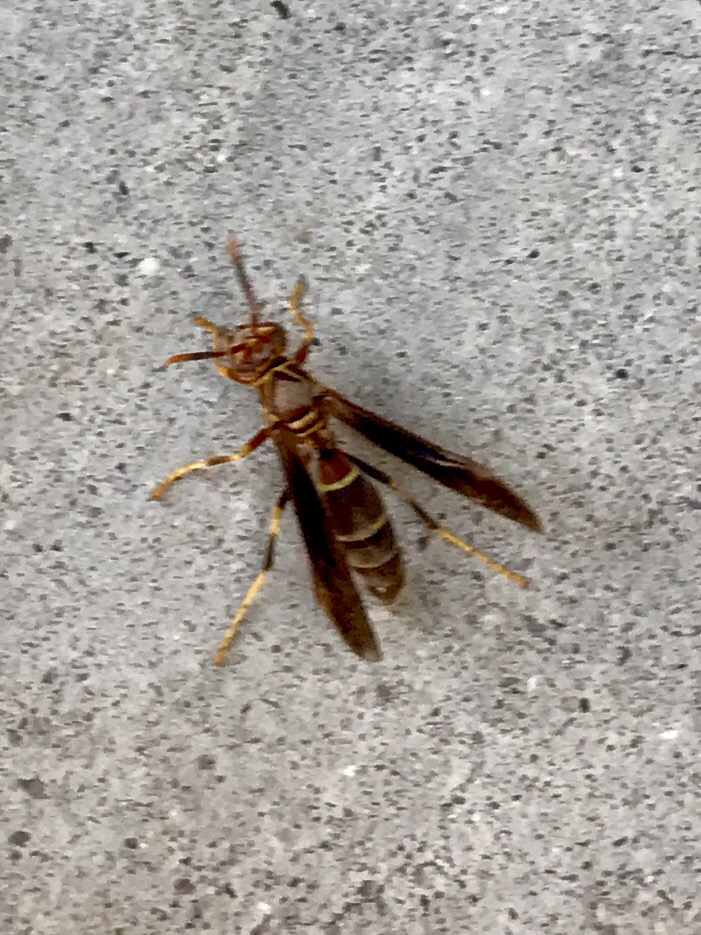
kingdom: Animalia
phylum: Arthropoda
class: Insecta
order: Hymenoptera
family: Eumenidae
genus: Polistes
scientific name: Polistes arizonensis
